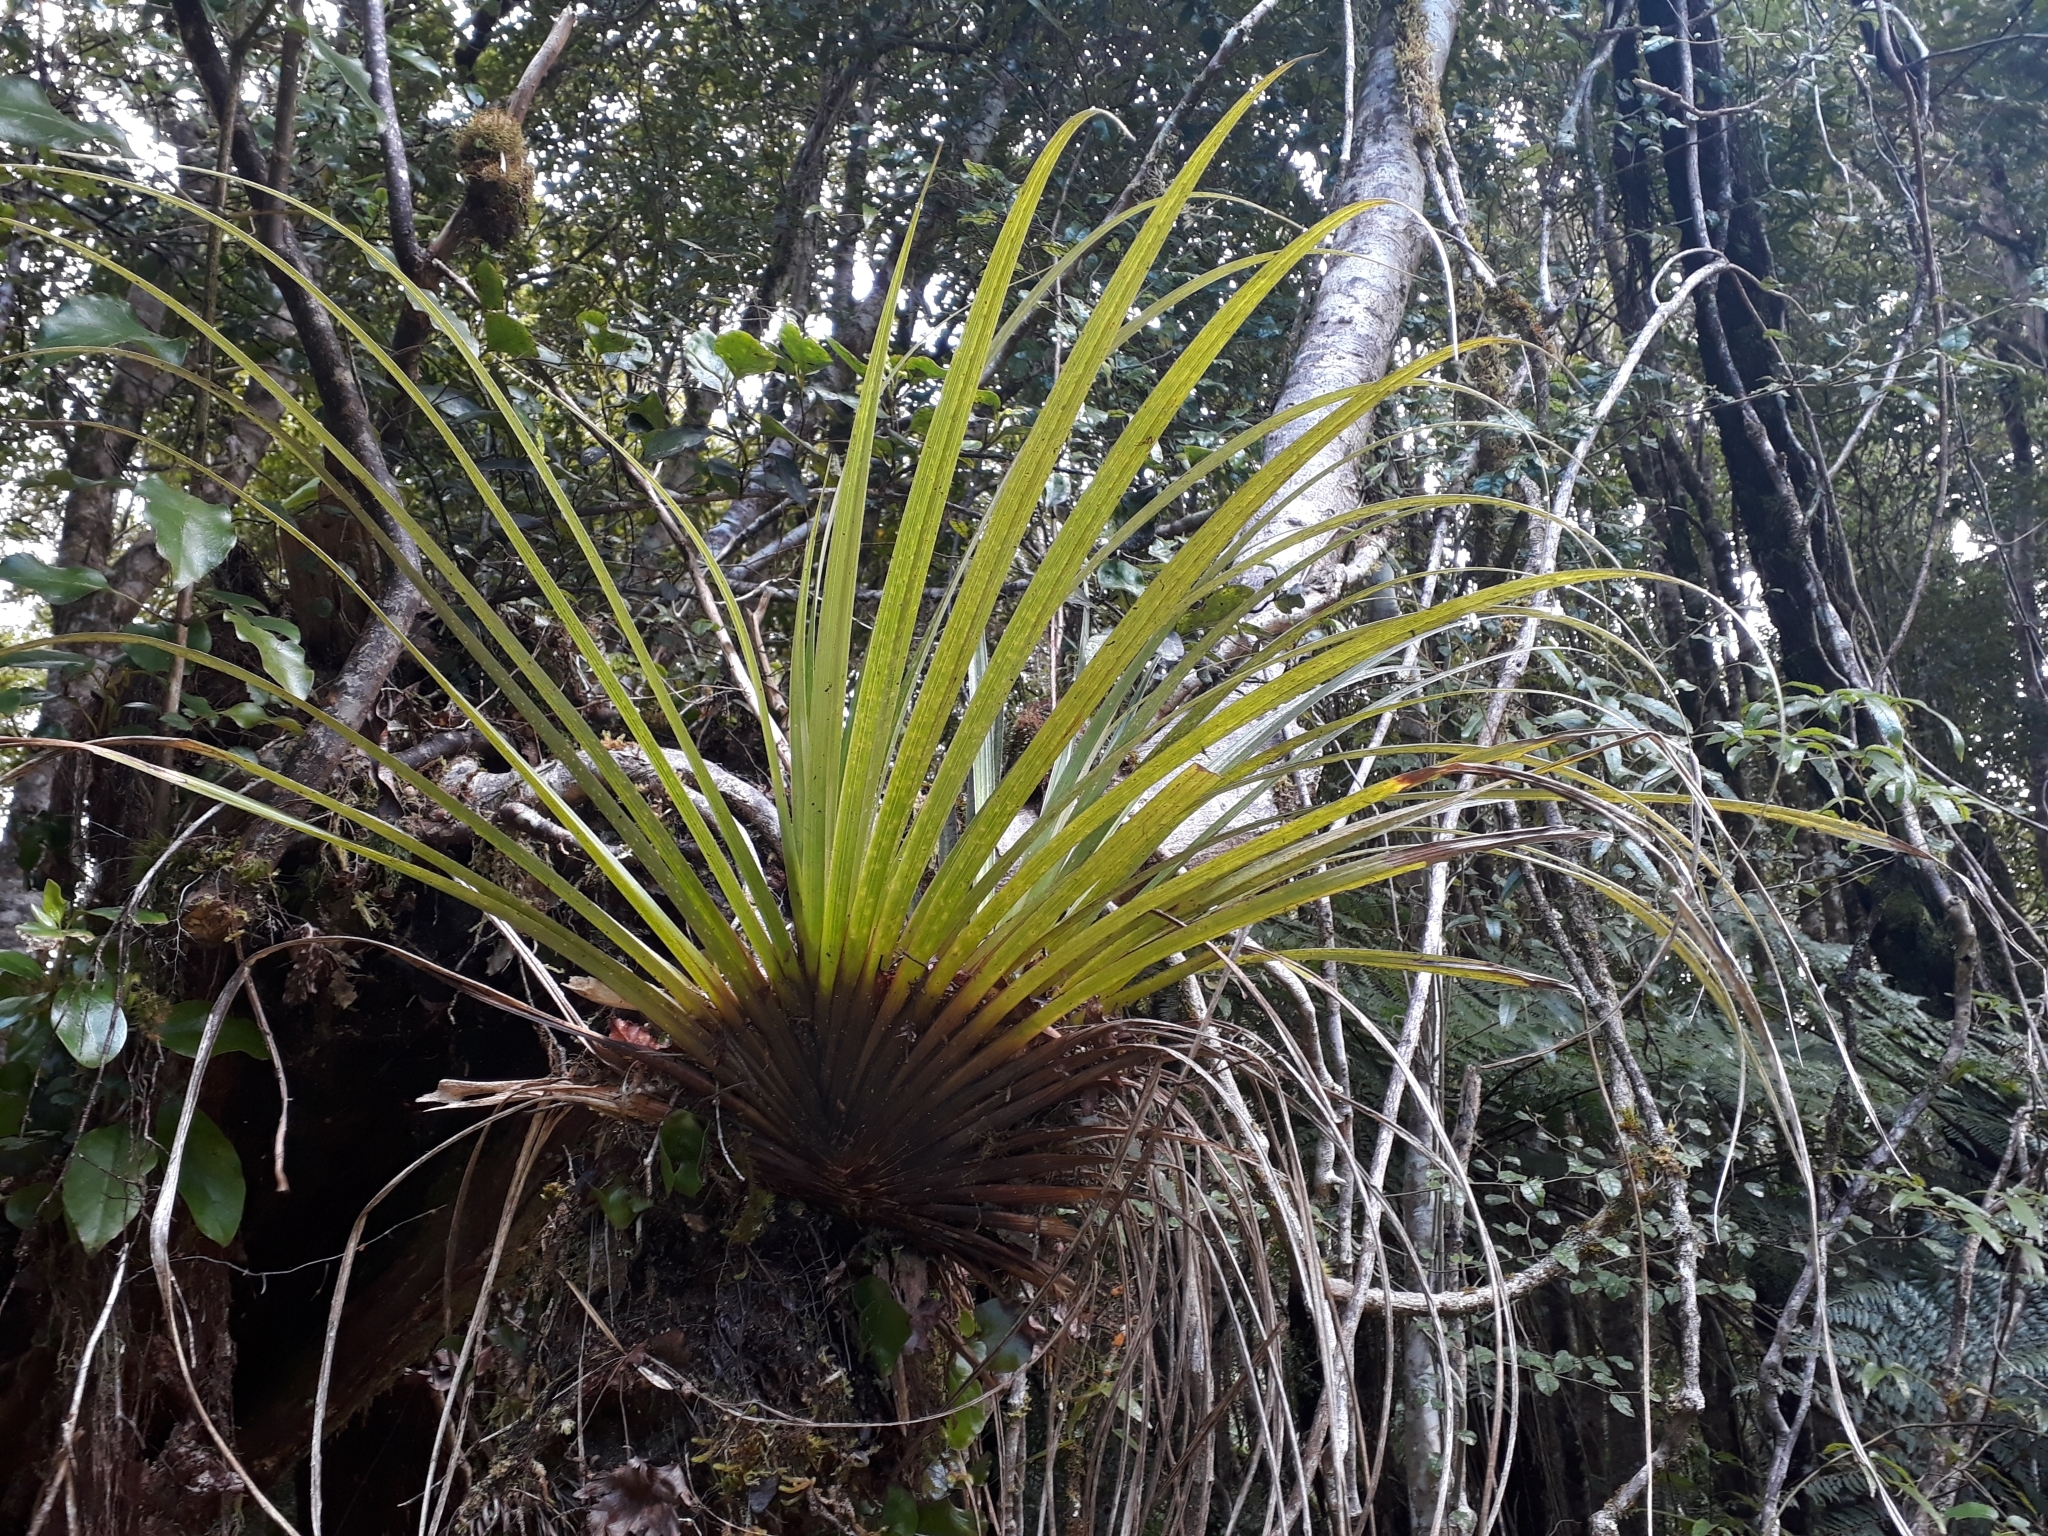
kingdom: Plantae
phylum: Tracheophyta
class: Liliopsida
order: Asparagales
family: Asteliaceae
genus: Astelia
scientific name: Astelia microsperma
